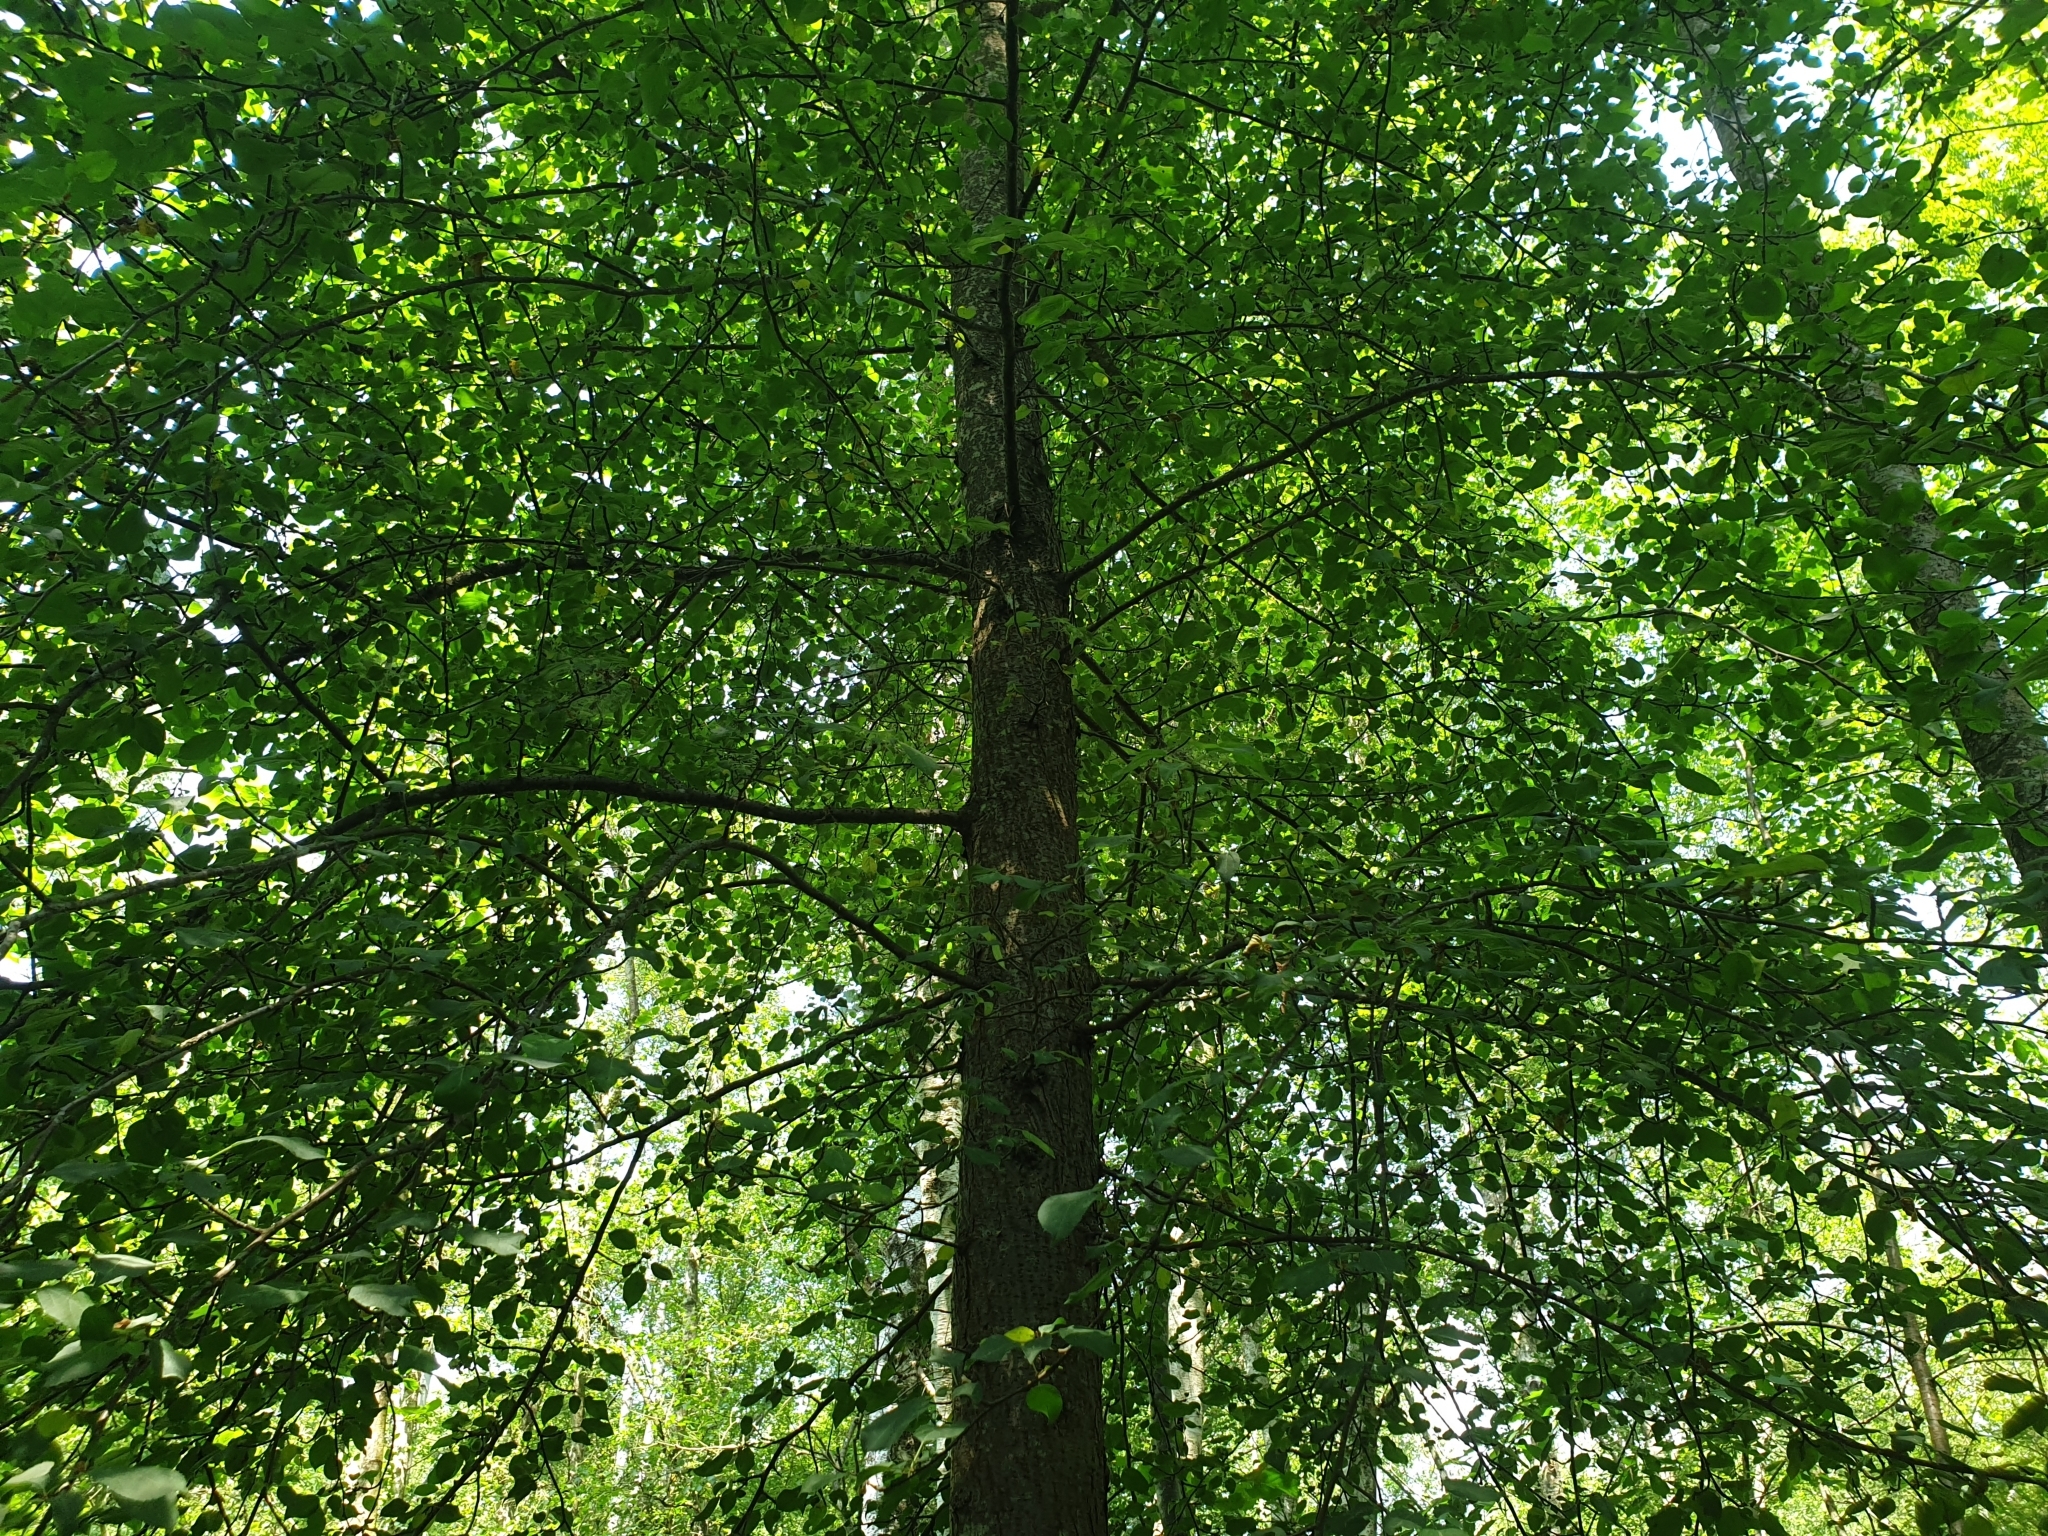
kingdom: Plantae
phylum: Tracheophyta
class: Magnoliopsida
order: Rosales
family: Rosaceae
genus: Malus
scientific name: Malus sylvestris
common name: Crab apple
